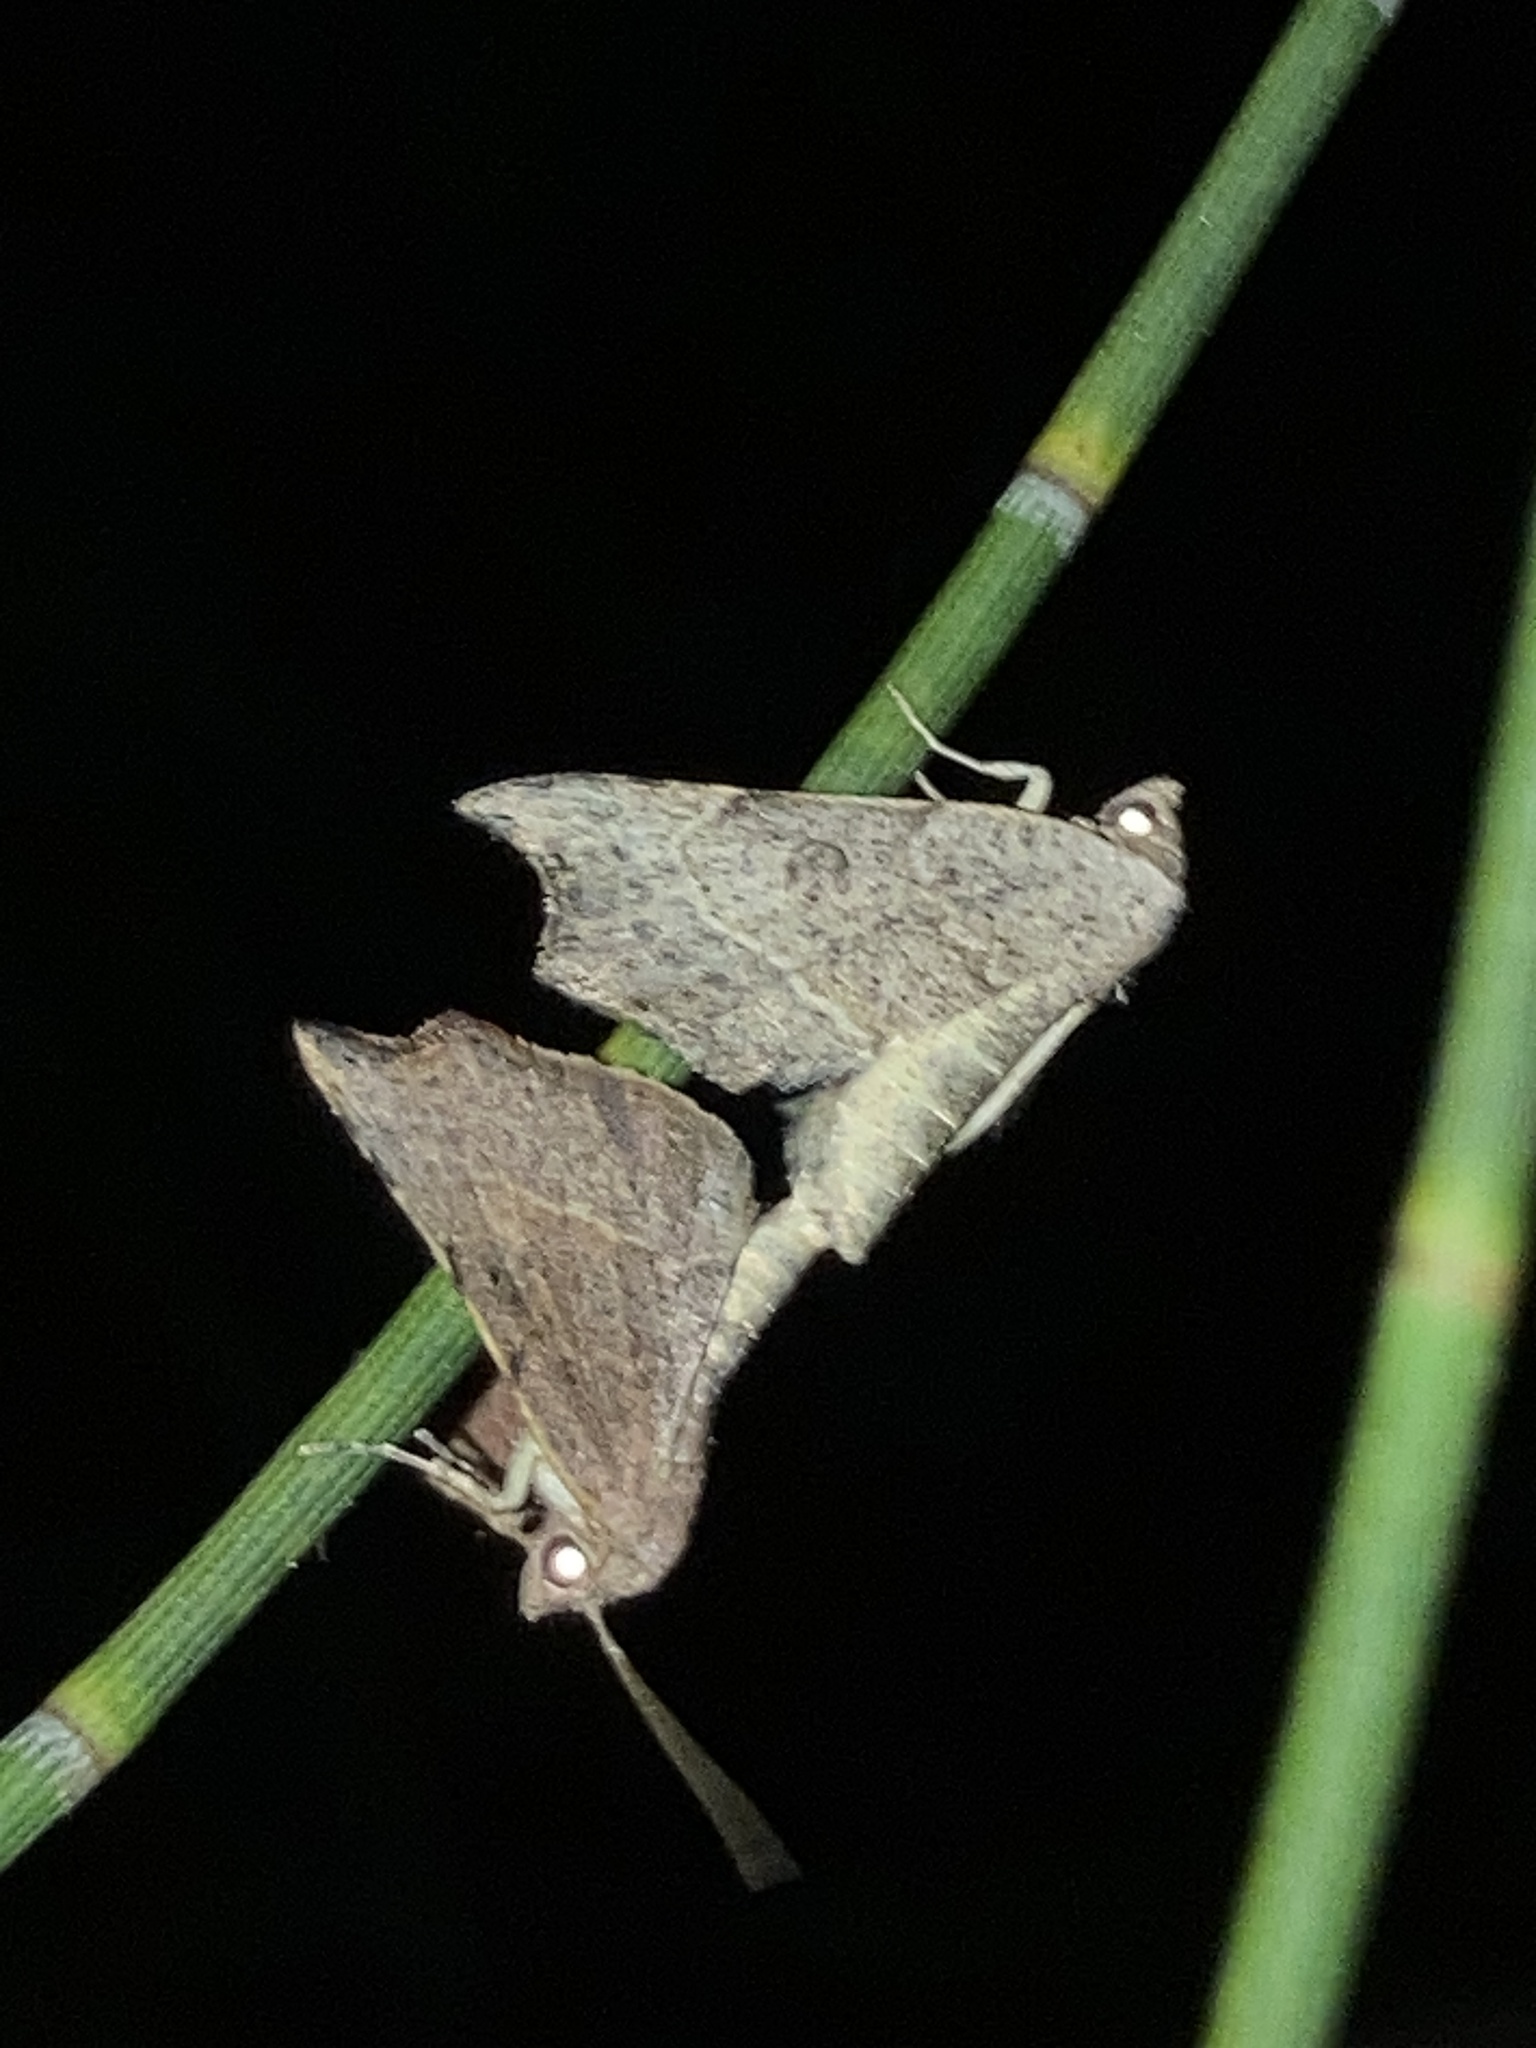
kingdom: Animalia
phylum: Arthropoda
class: Insecta
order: Lepidoptera
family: Erebidae
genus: Laspeyria
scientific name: Laspeyria concavata
